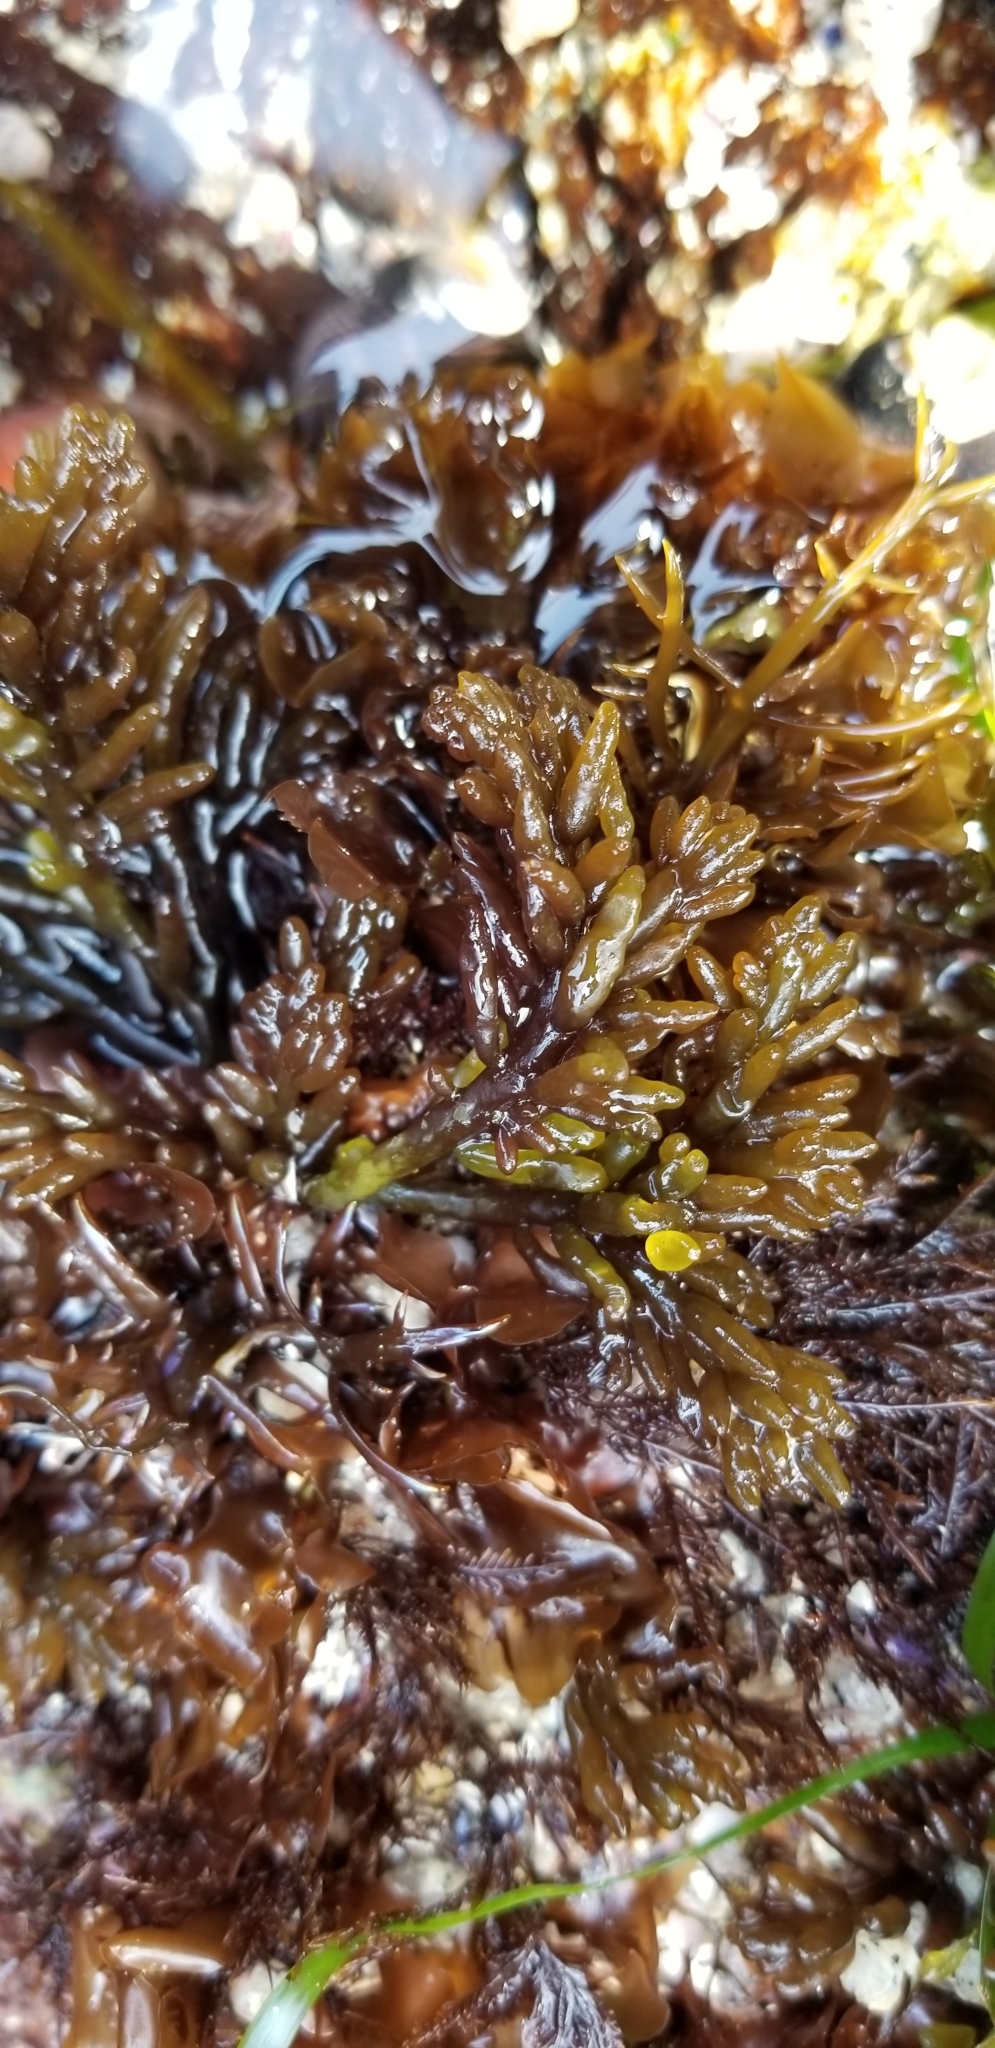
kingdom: Plantae
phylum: Rhodophyta
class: Florideophyceae
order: Rhodymeniales
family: Champiaceae
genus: Neogastroclonium
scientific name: Neogastroclonium subarticulatum
